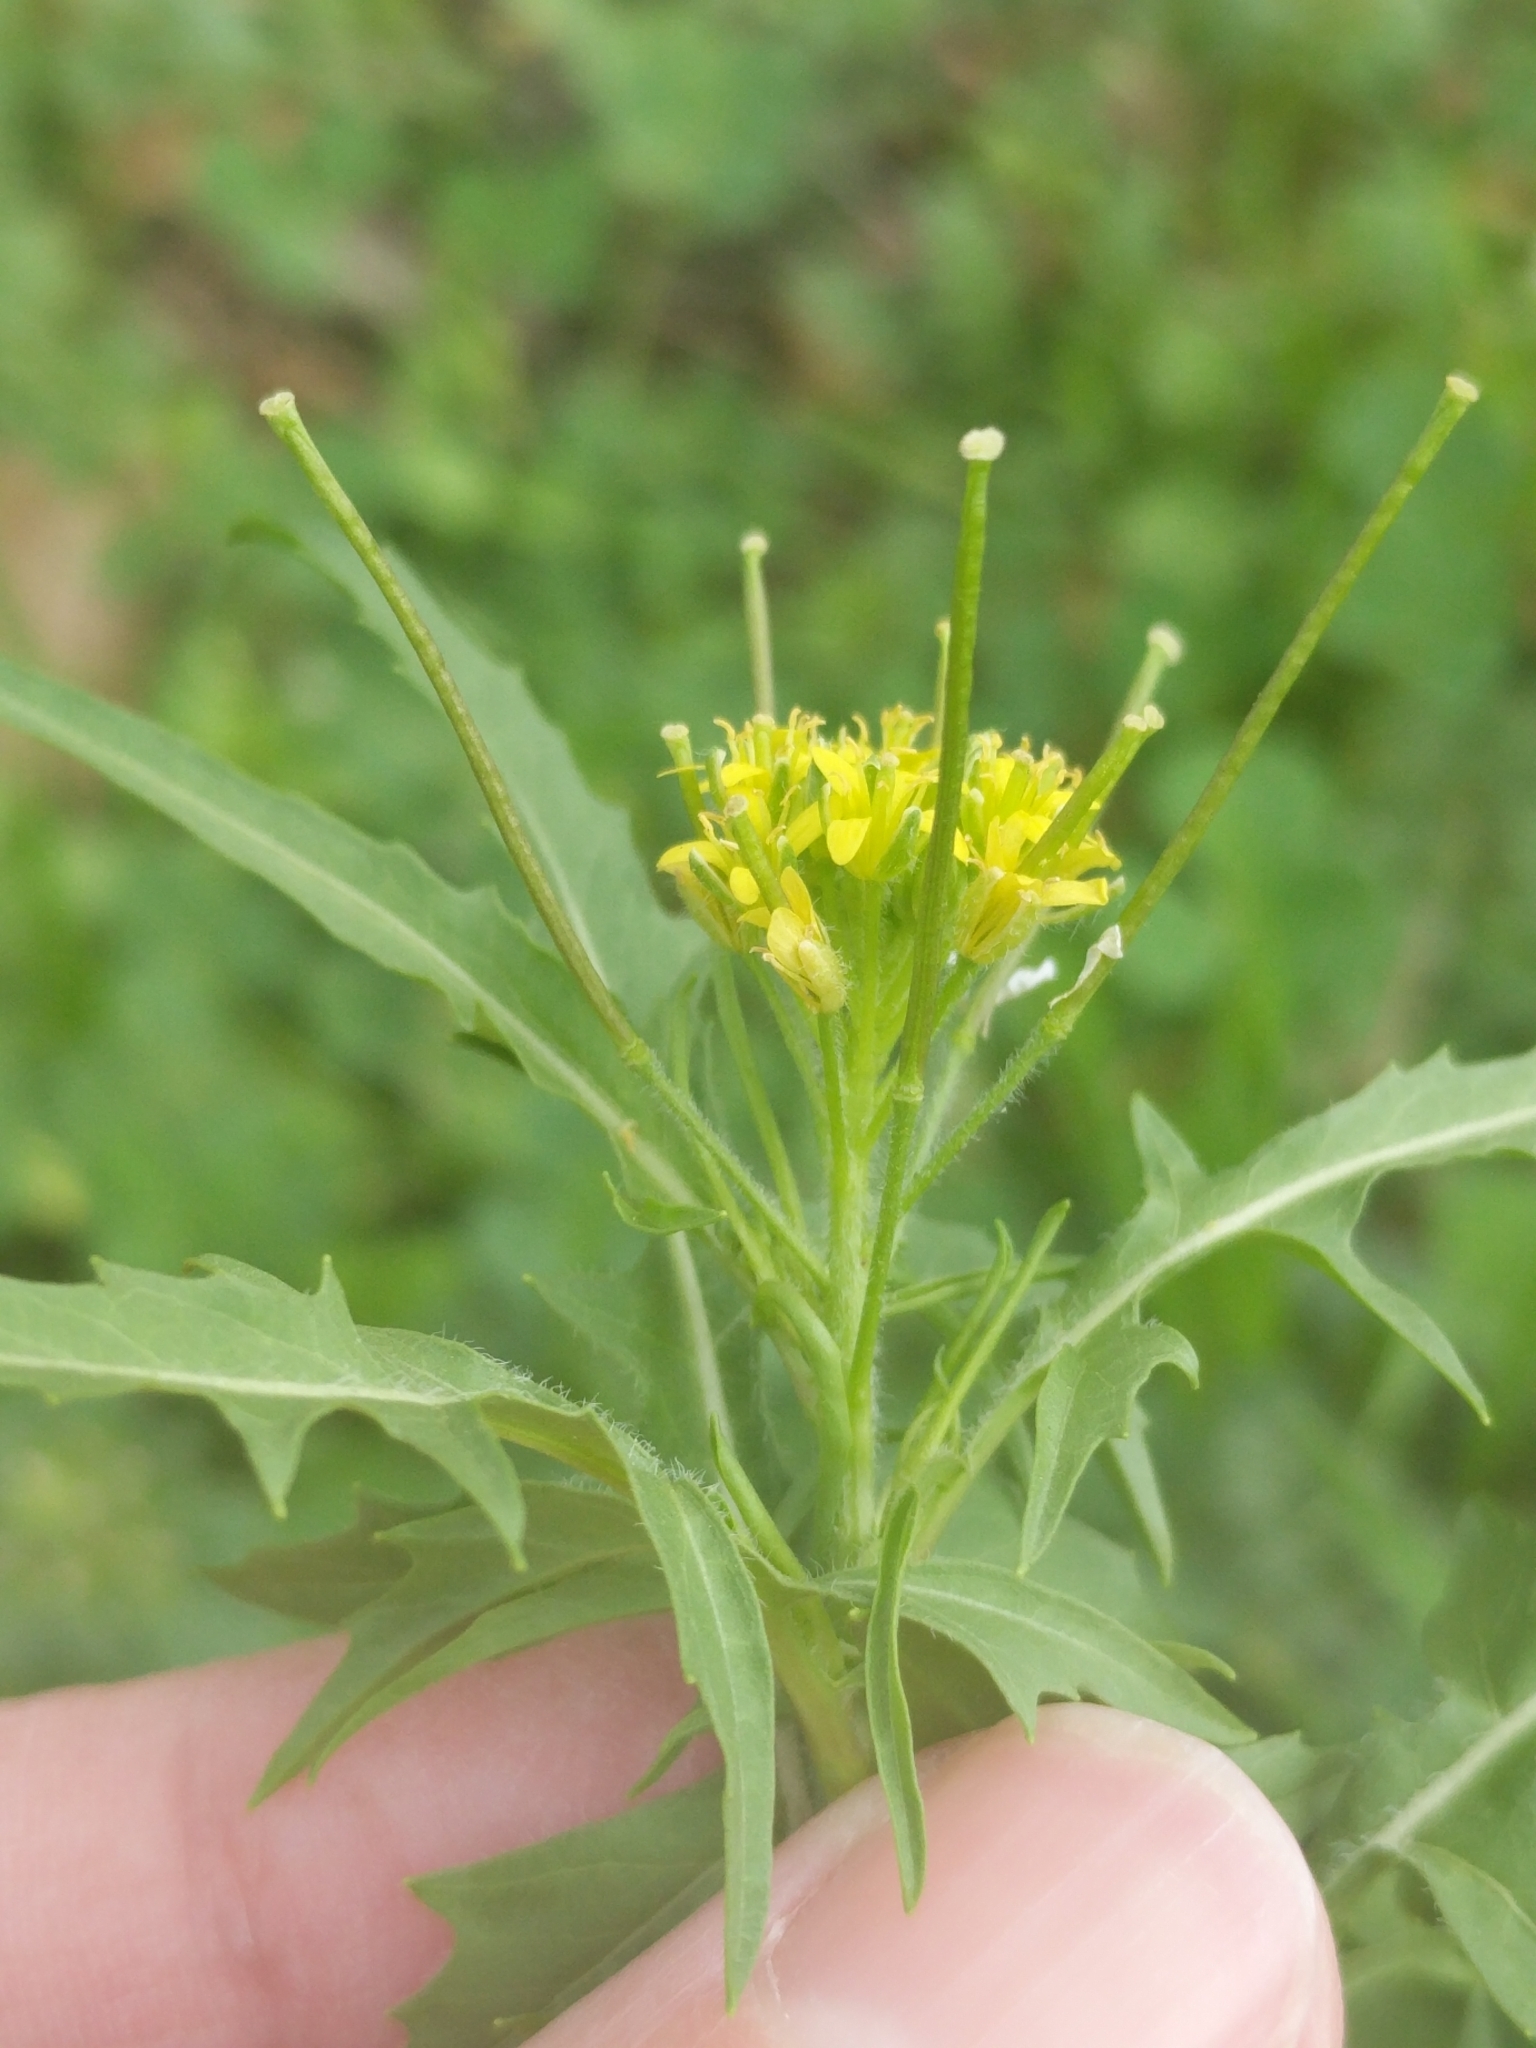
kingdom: Plantae
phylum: Tracheophyta
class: Magnoliopsida
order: Brassicales
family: Brassicaceae
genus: Sisymbrium
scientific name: Sisymbrium irio
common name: London rocket
